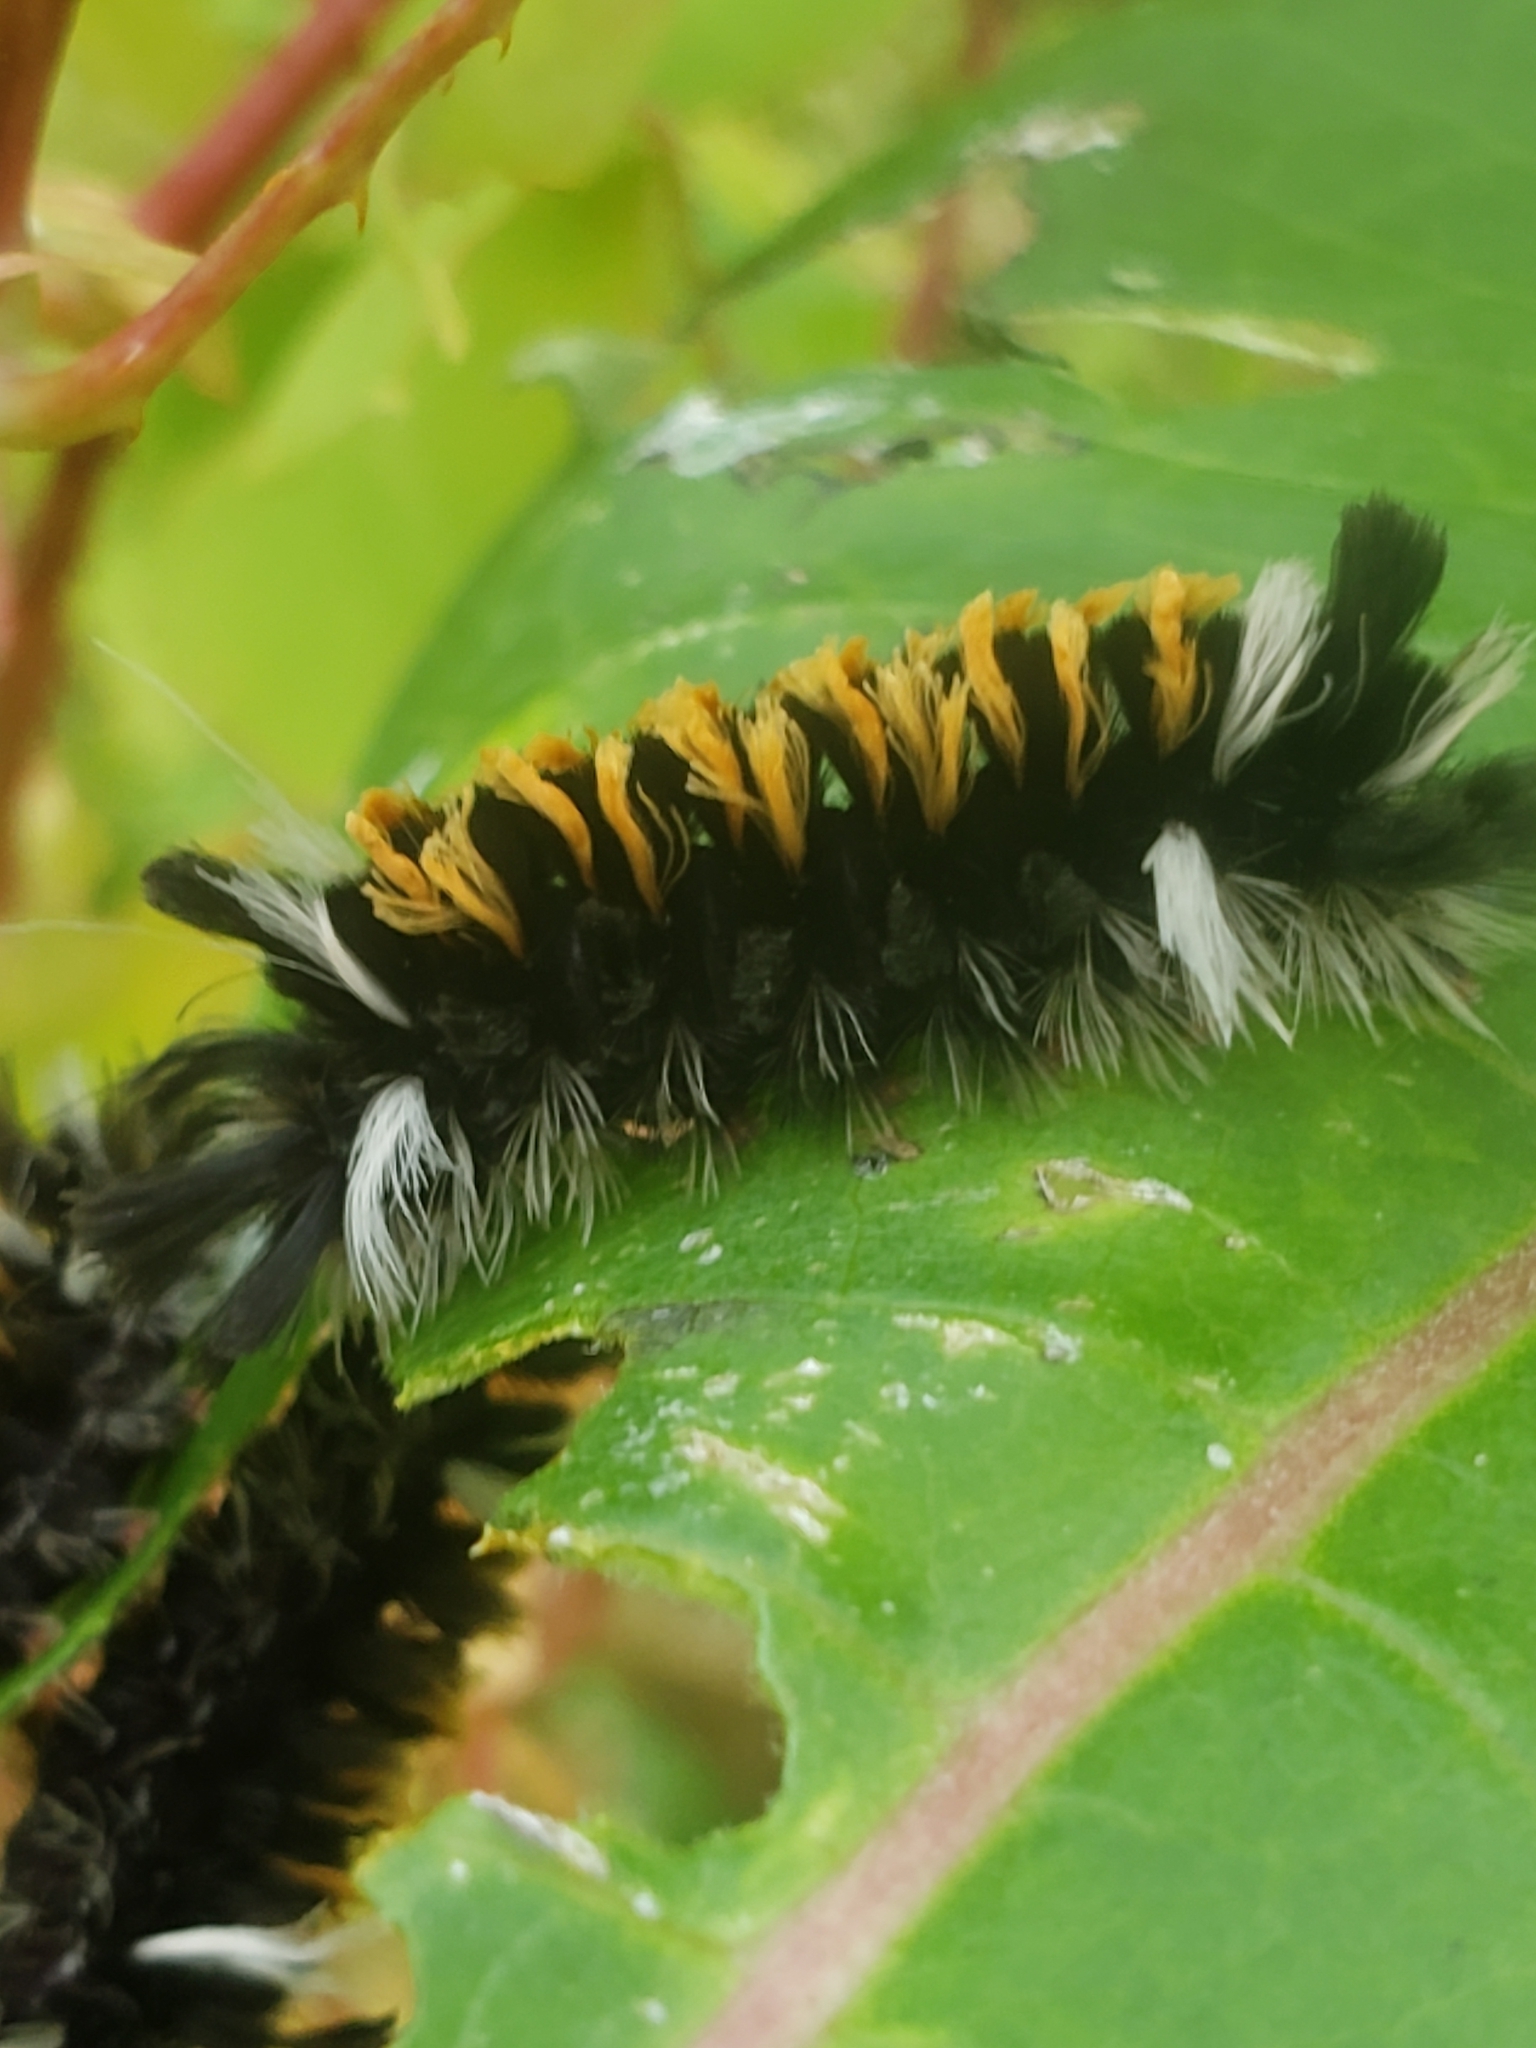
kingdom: Animalia
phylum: Arthropoda
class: Insecta
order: Lepidoptera
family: Erebidae
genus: Euchaetes
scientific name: Euchaetes egle
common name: Milkweed tussock moth
